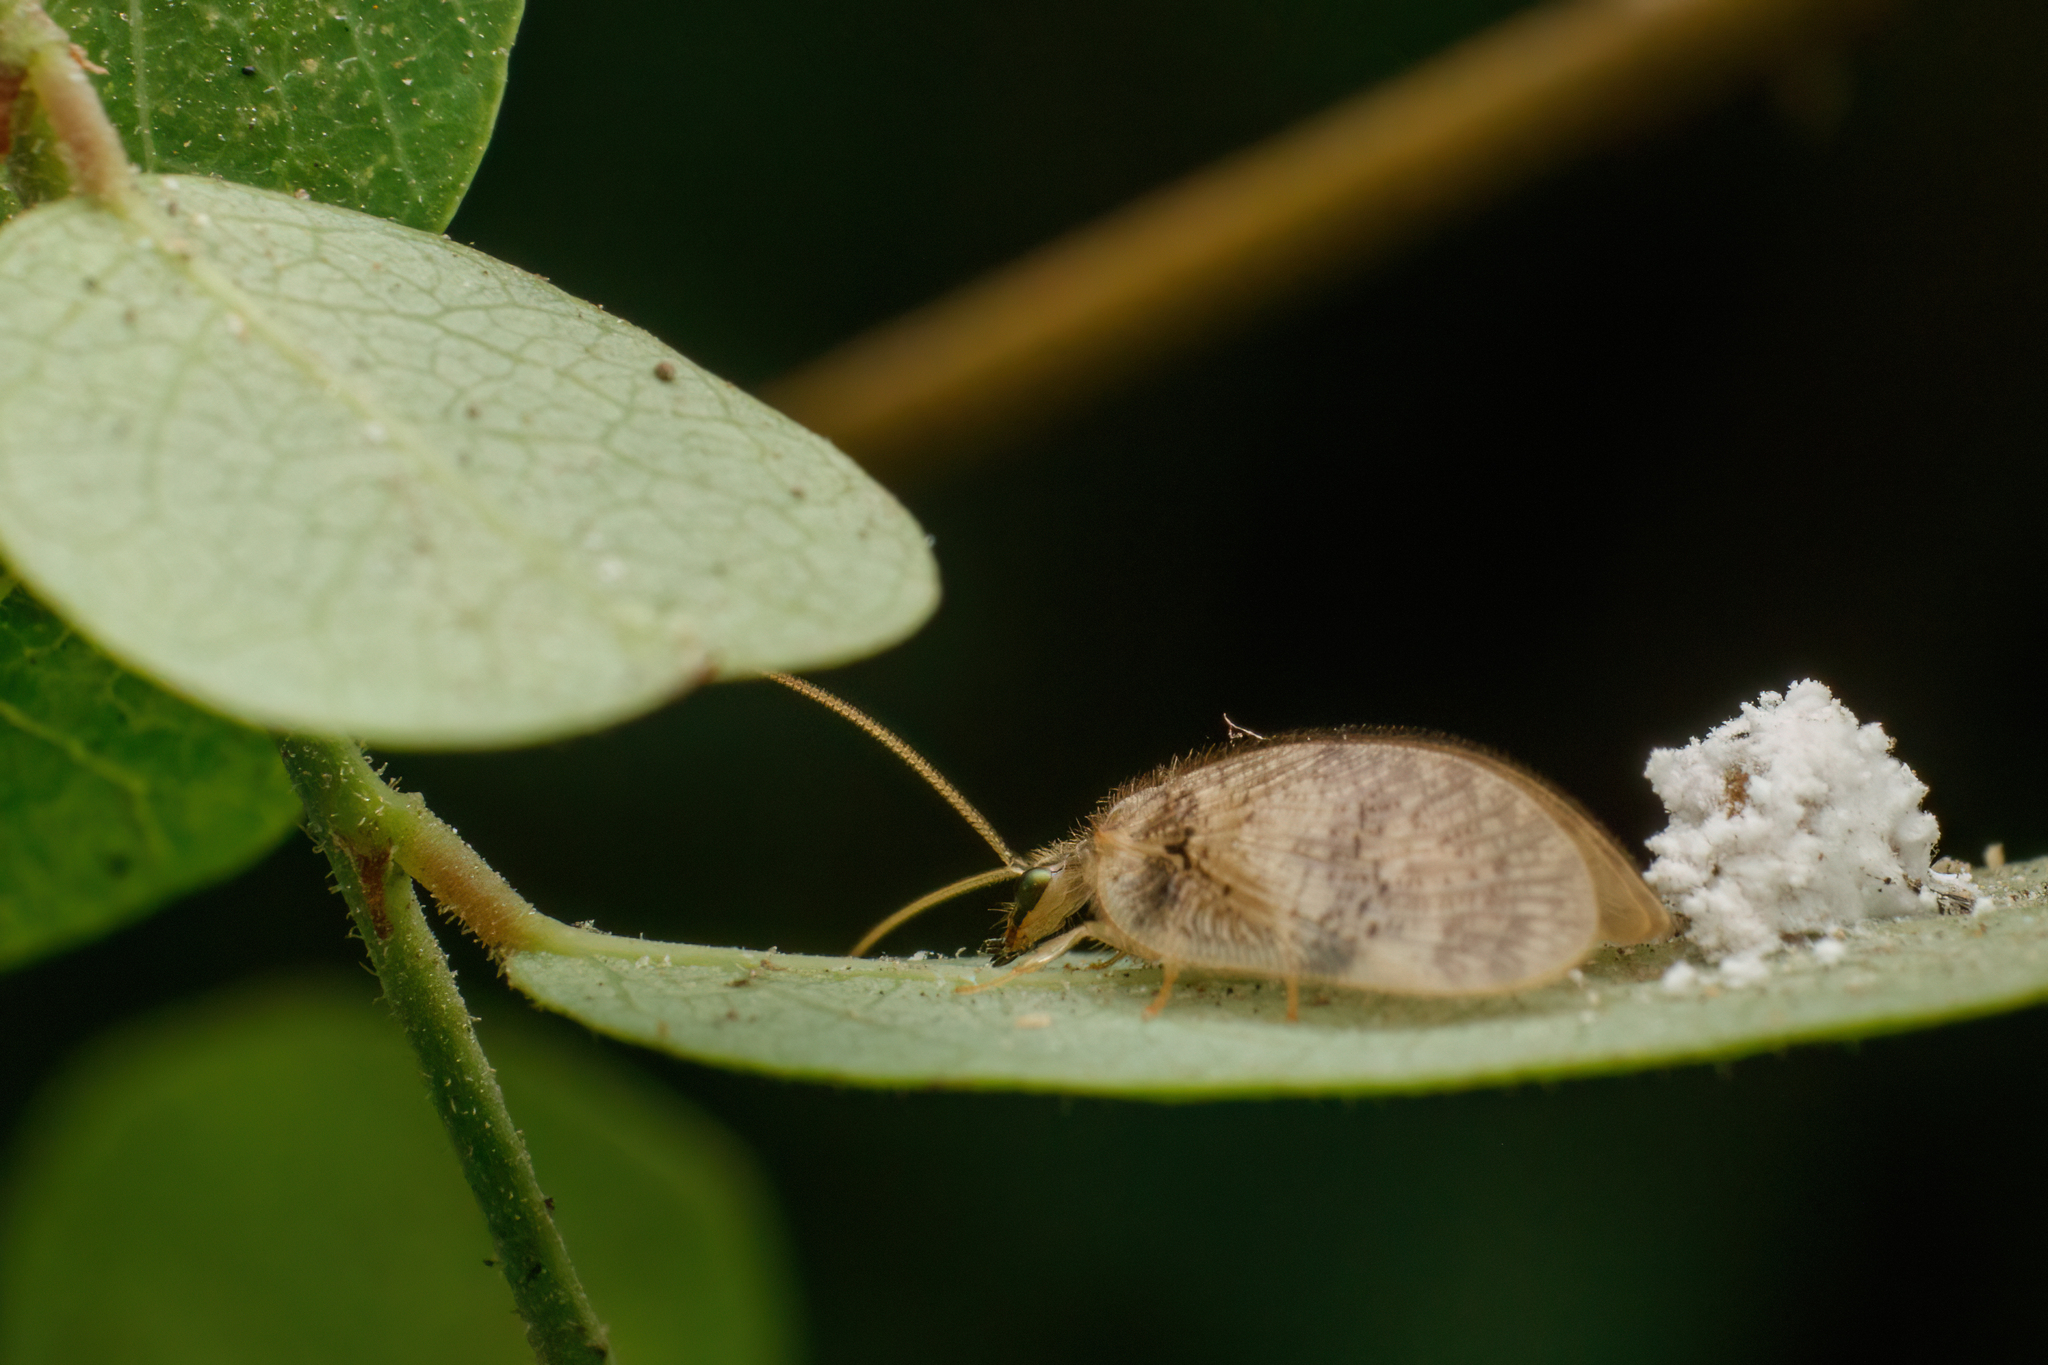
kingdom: Animalia
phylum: Arthropoda
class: Insecta
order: Neuroptera
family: Hemerobiidae
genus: Psectra
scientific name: Psectra iniqua
